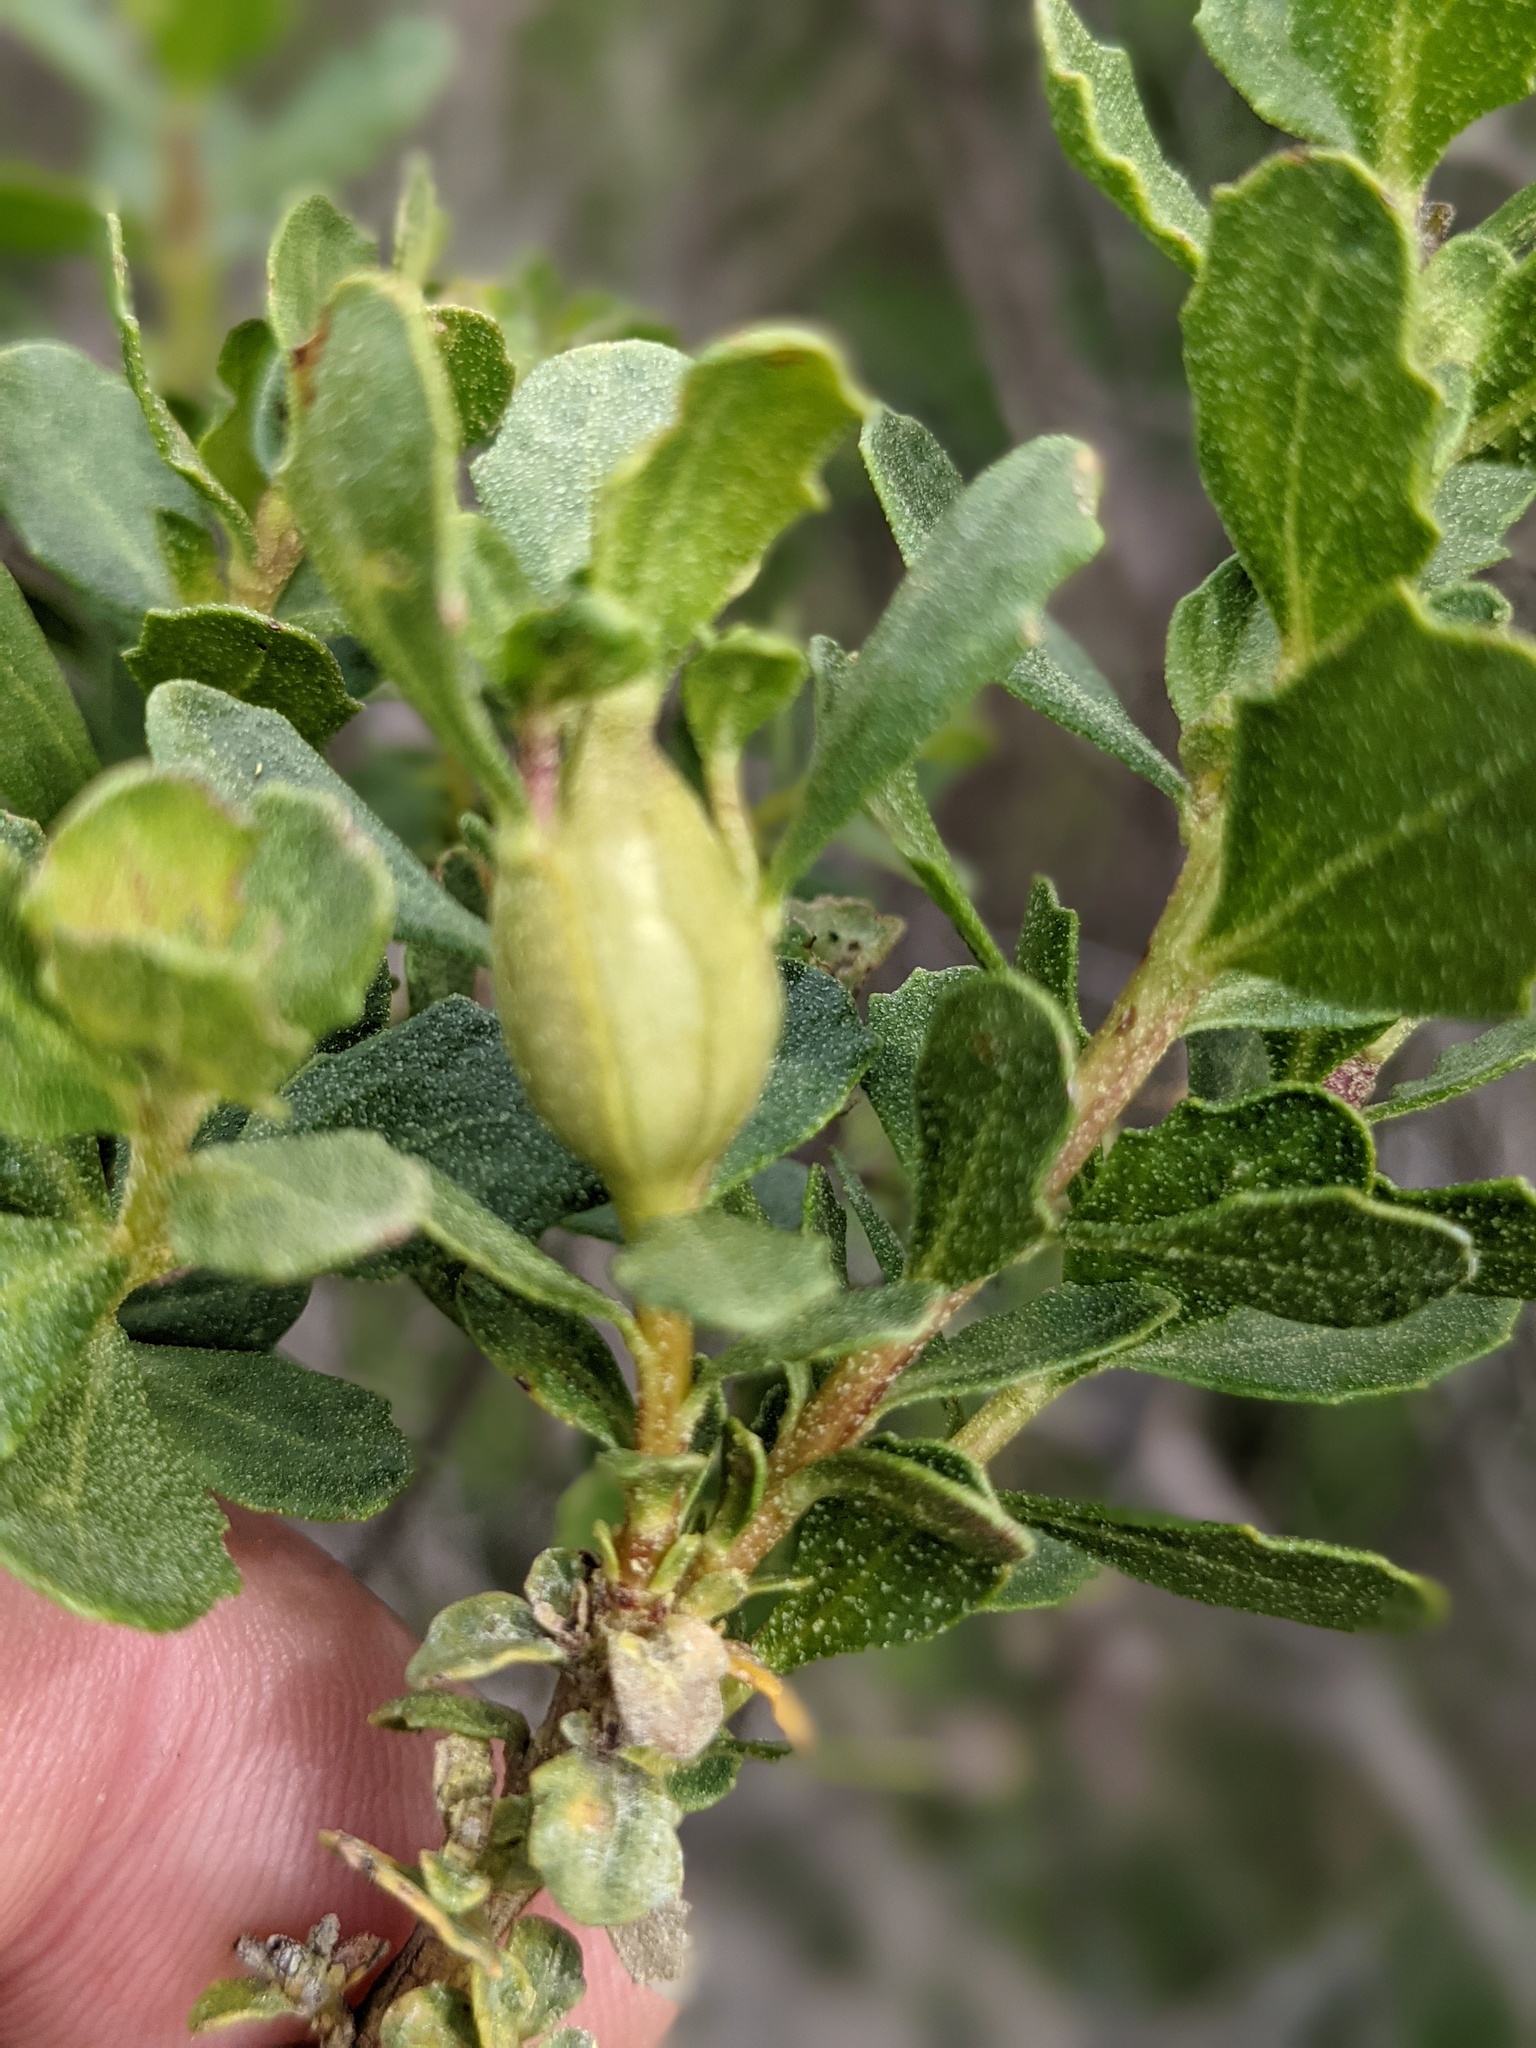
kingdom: Animalia
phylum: Arthropoda
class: Insecta
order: Lepidoptera
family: Gelechiidae
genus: Gnorimoschema
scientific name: Gnorimoschema baccharisella
